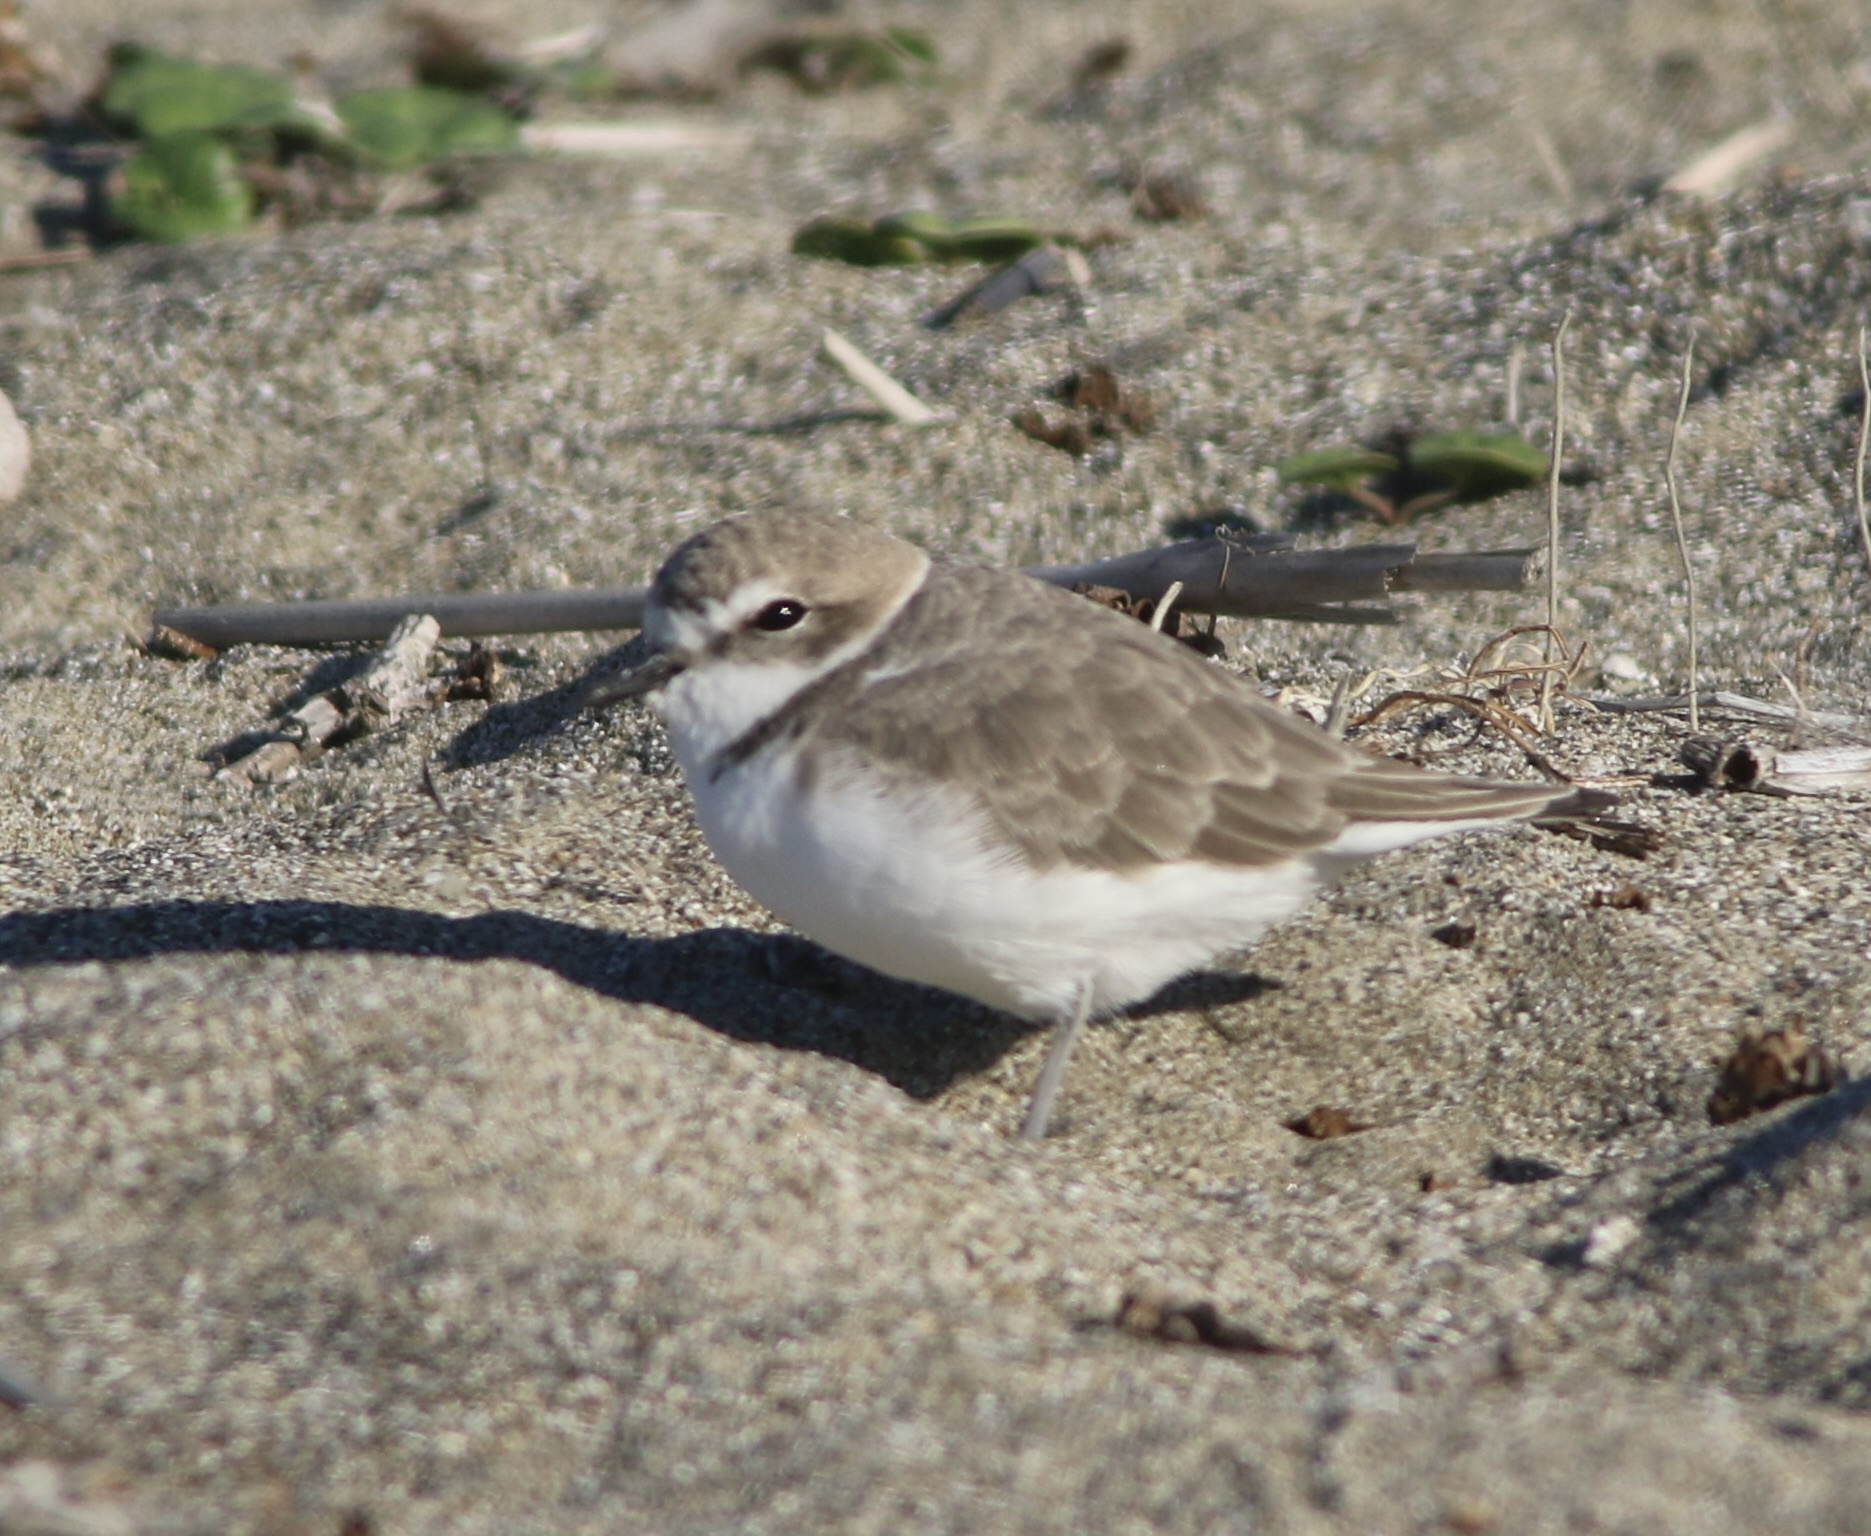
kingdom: Animalia
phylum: Chordata
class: Aves
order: Charadriiformes
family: Charadriidae
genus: Anarhynchus
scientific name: Anarhynchus
